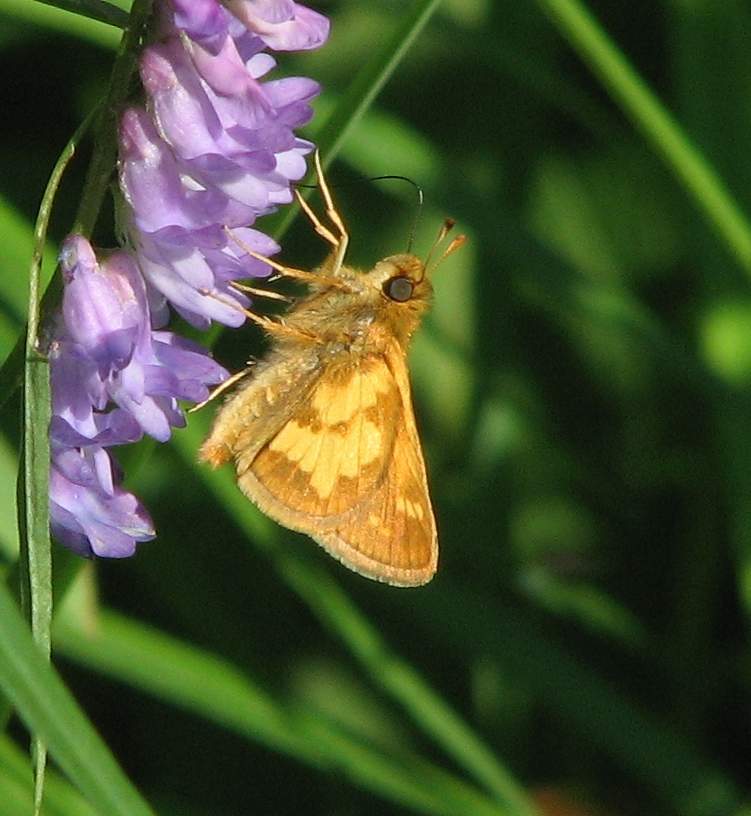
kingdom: Animalia
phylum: Arthropoda
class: Insecta
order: Lepidoptera
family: Hesperiidae
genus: Polites
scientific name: Polites coras
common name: Peck's skipper
